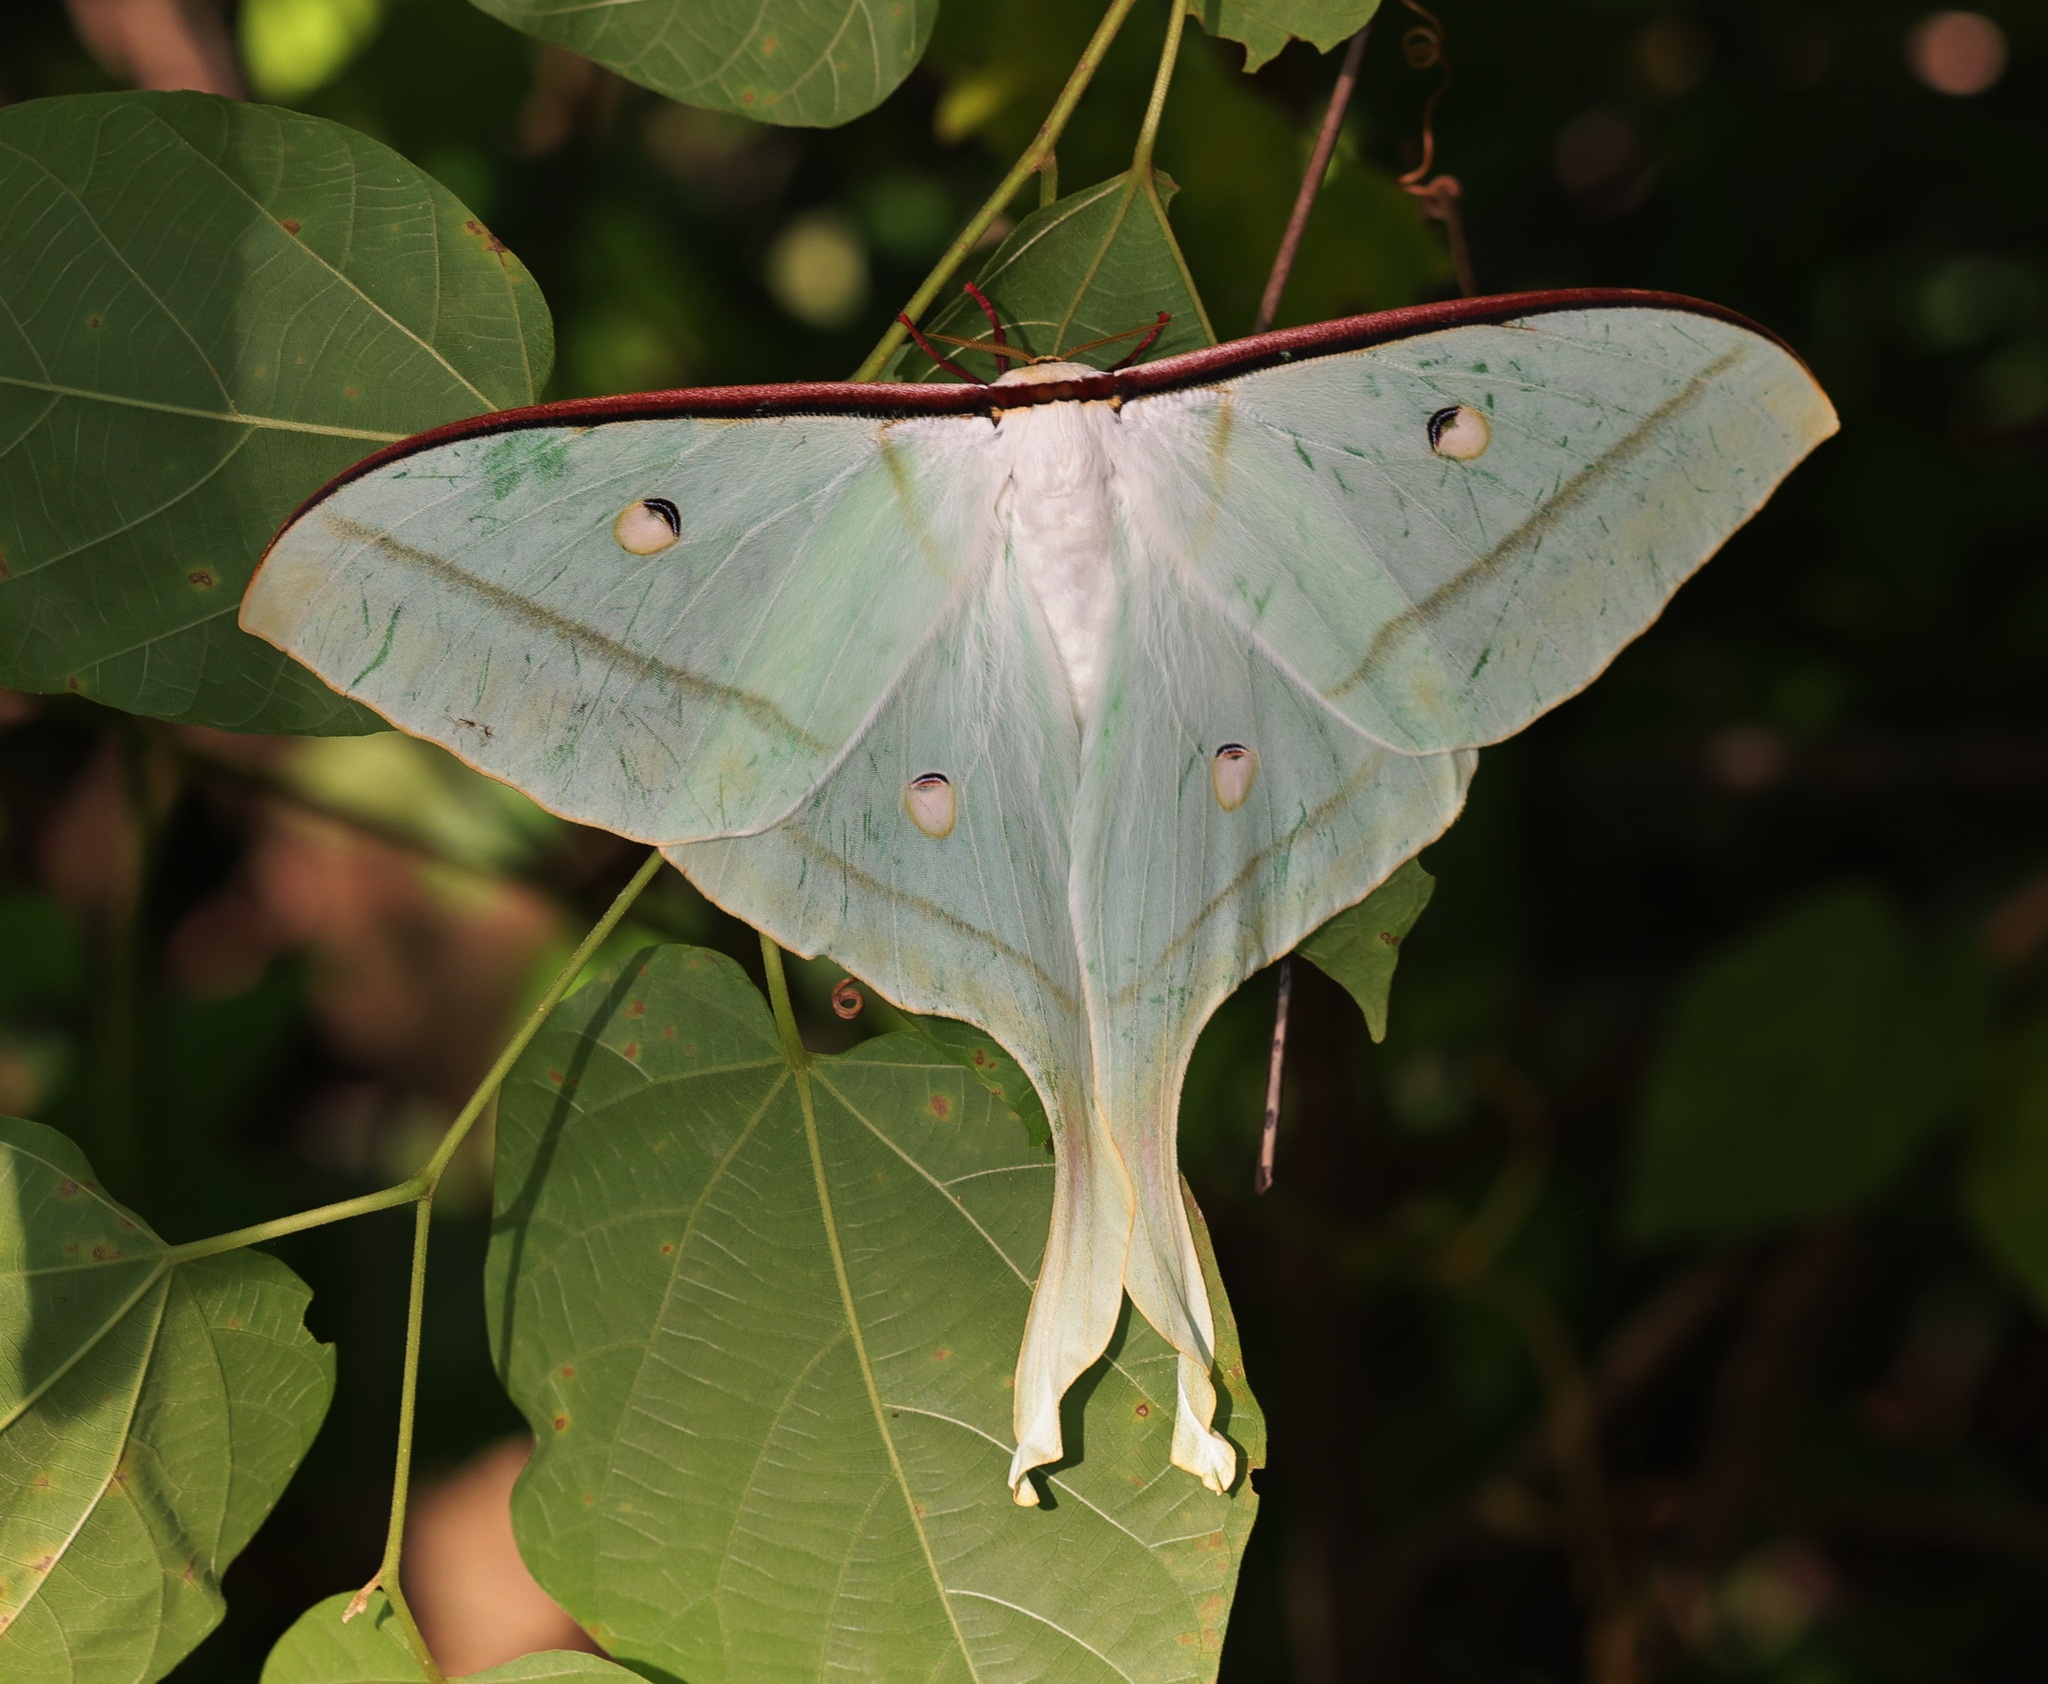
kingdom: Animalia
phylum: Arthropoda
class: Insecta
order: Lepidoptera
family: Saturniidae
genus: Actias
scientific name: Actias ningpoana
